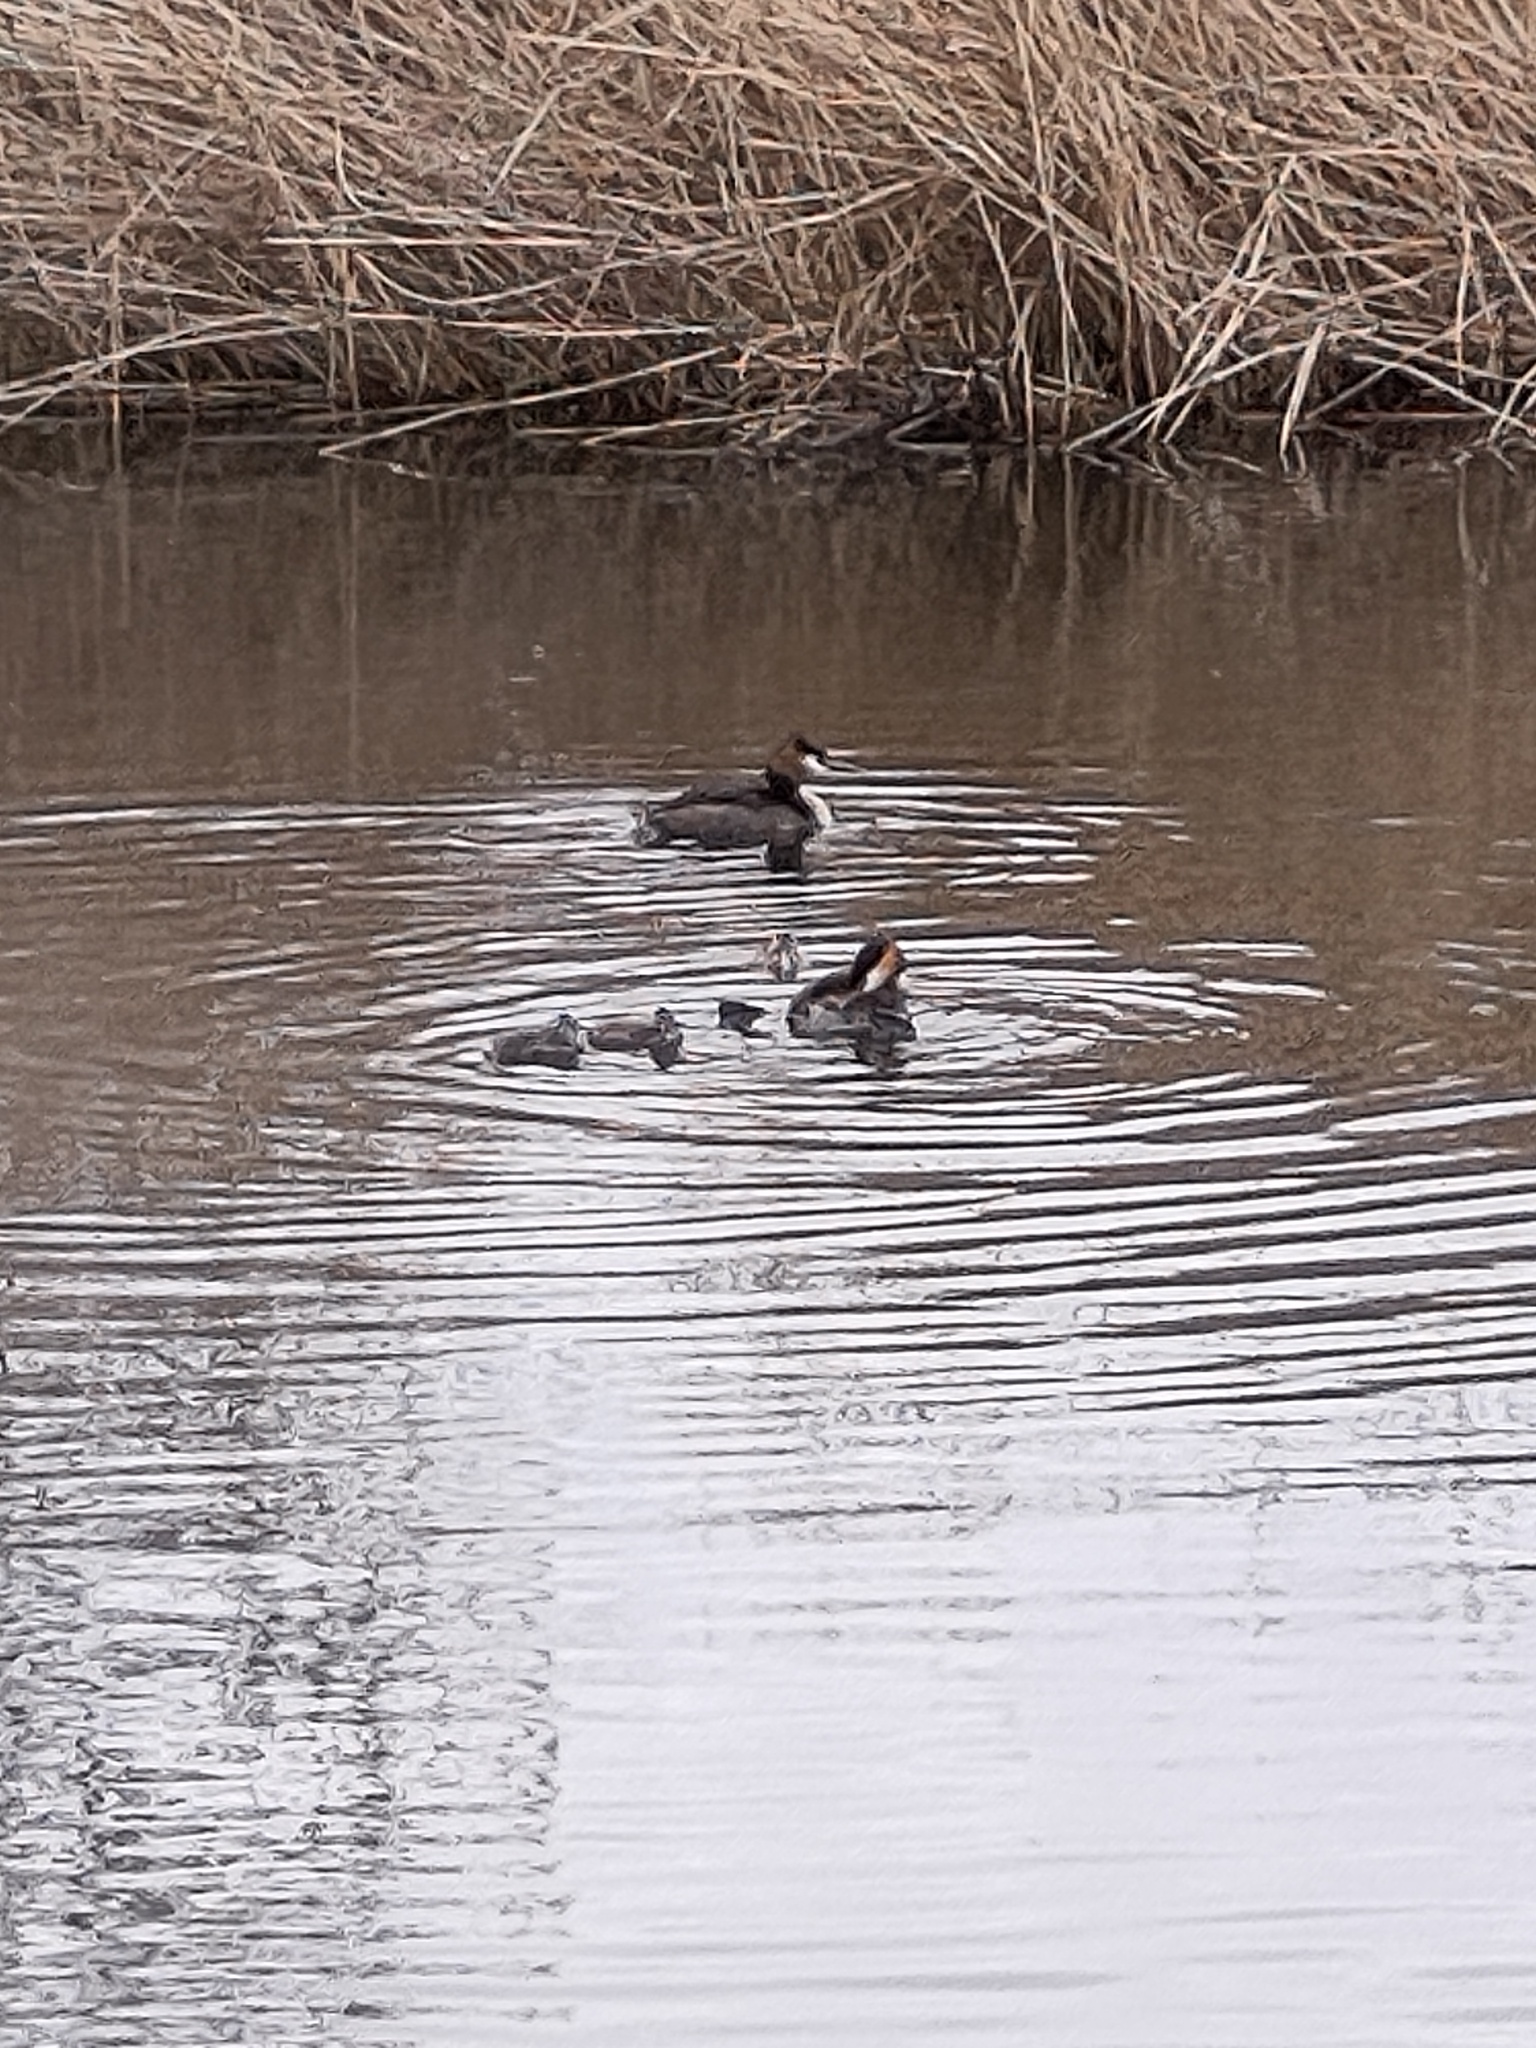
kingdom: Animalia
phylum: Chordata
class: Aves
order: Podicipediformes
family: Podicipedidae
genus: Podiceps
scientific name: Podiceps cristatus
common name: Great crested grebe
